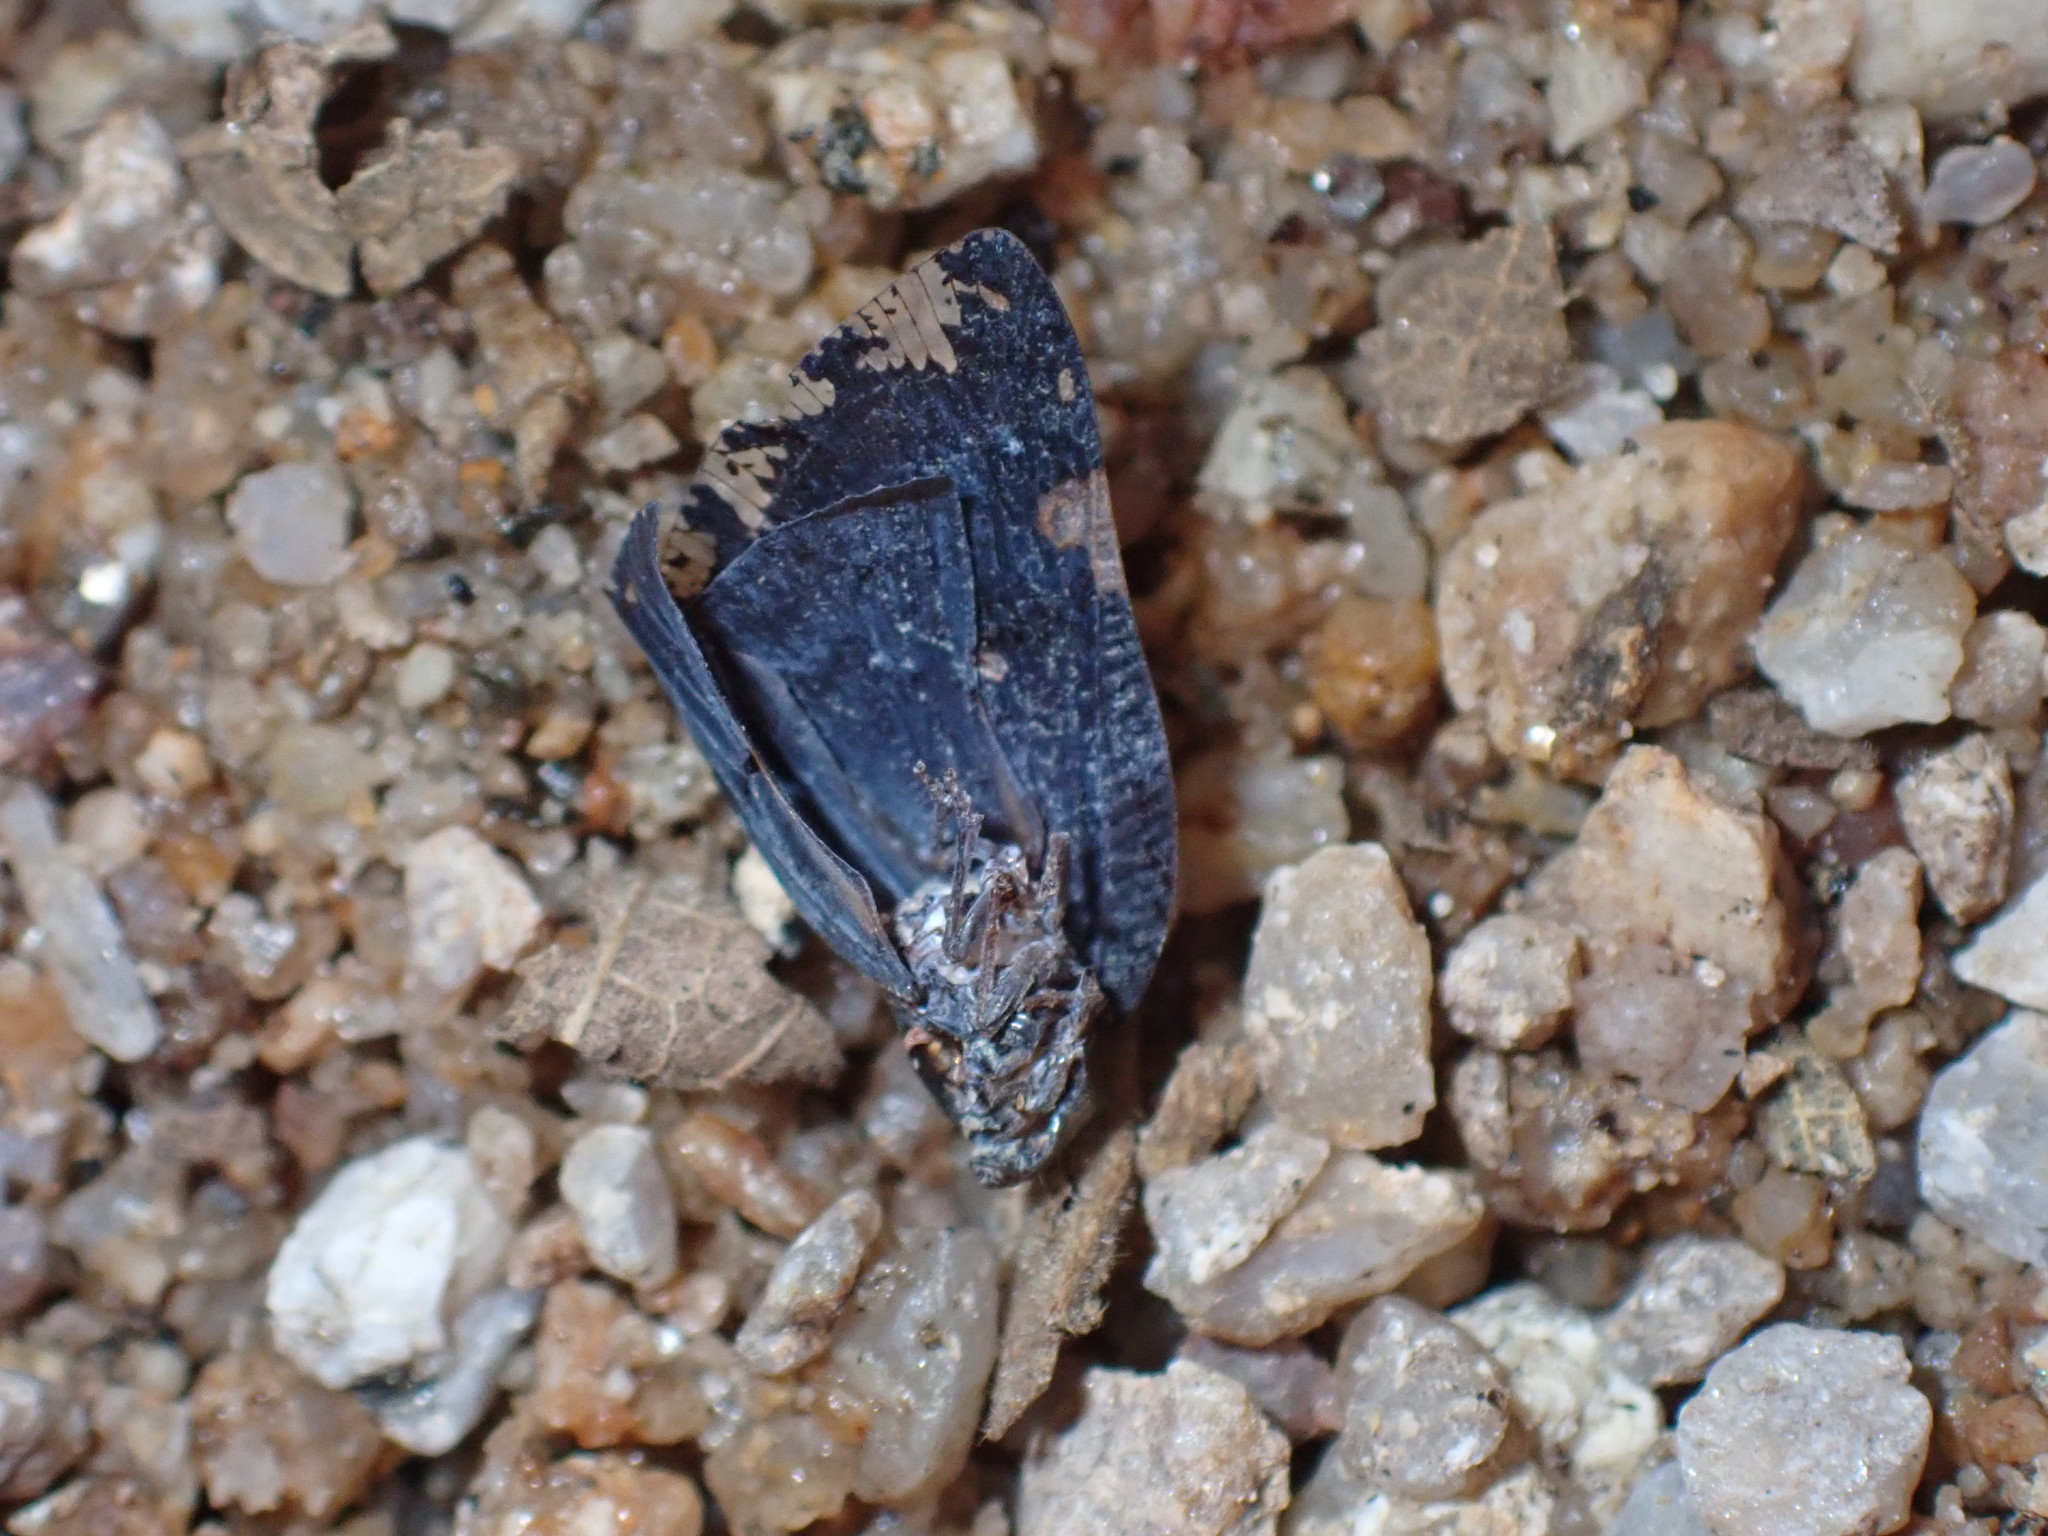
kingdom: Animalia
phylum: Arthropoda
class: Insecta
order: Hemiptera
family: Ricaniidae
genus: Ricania
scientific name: Ricania speculum
